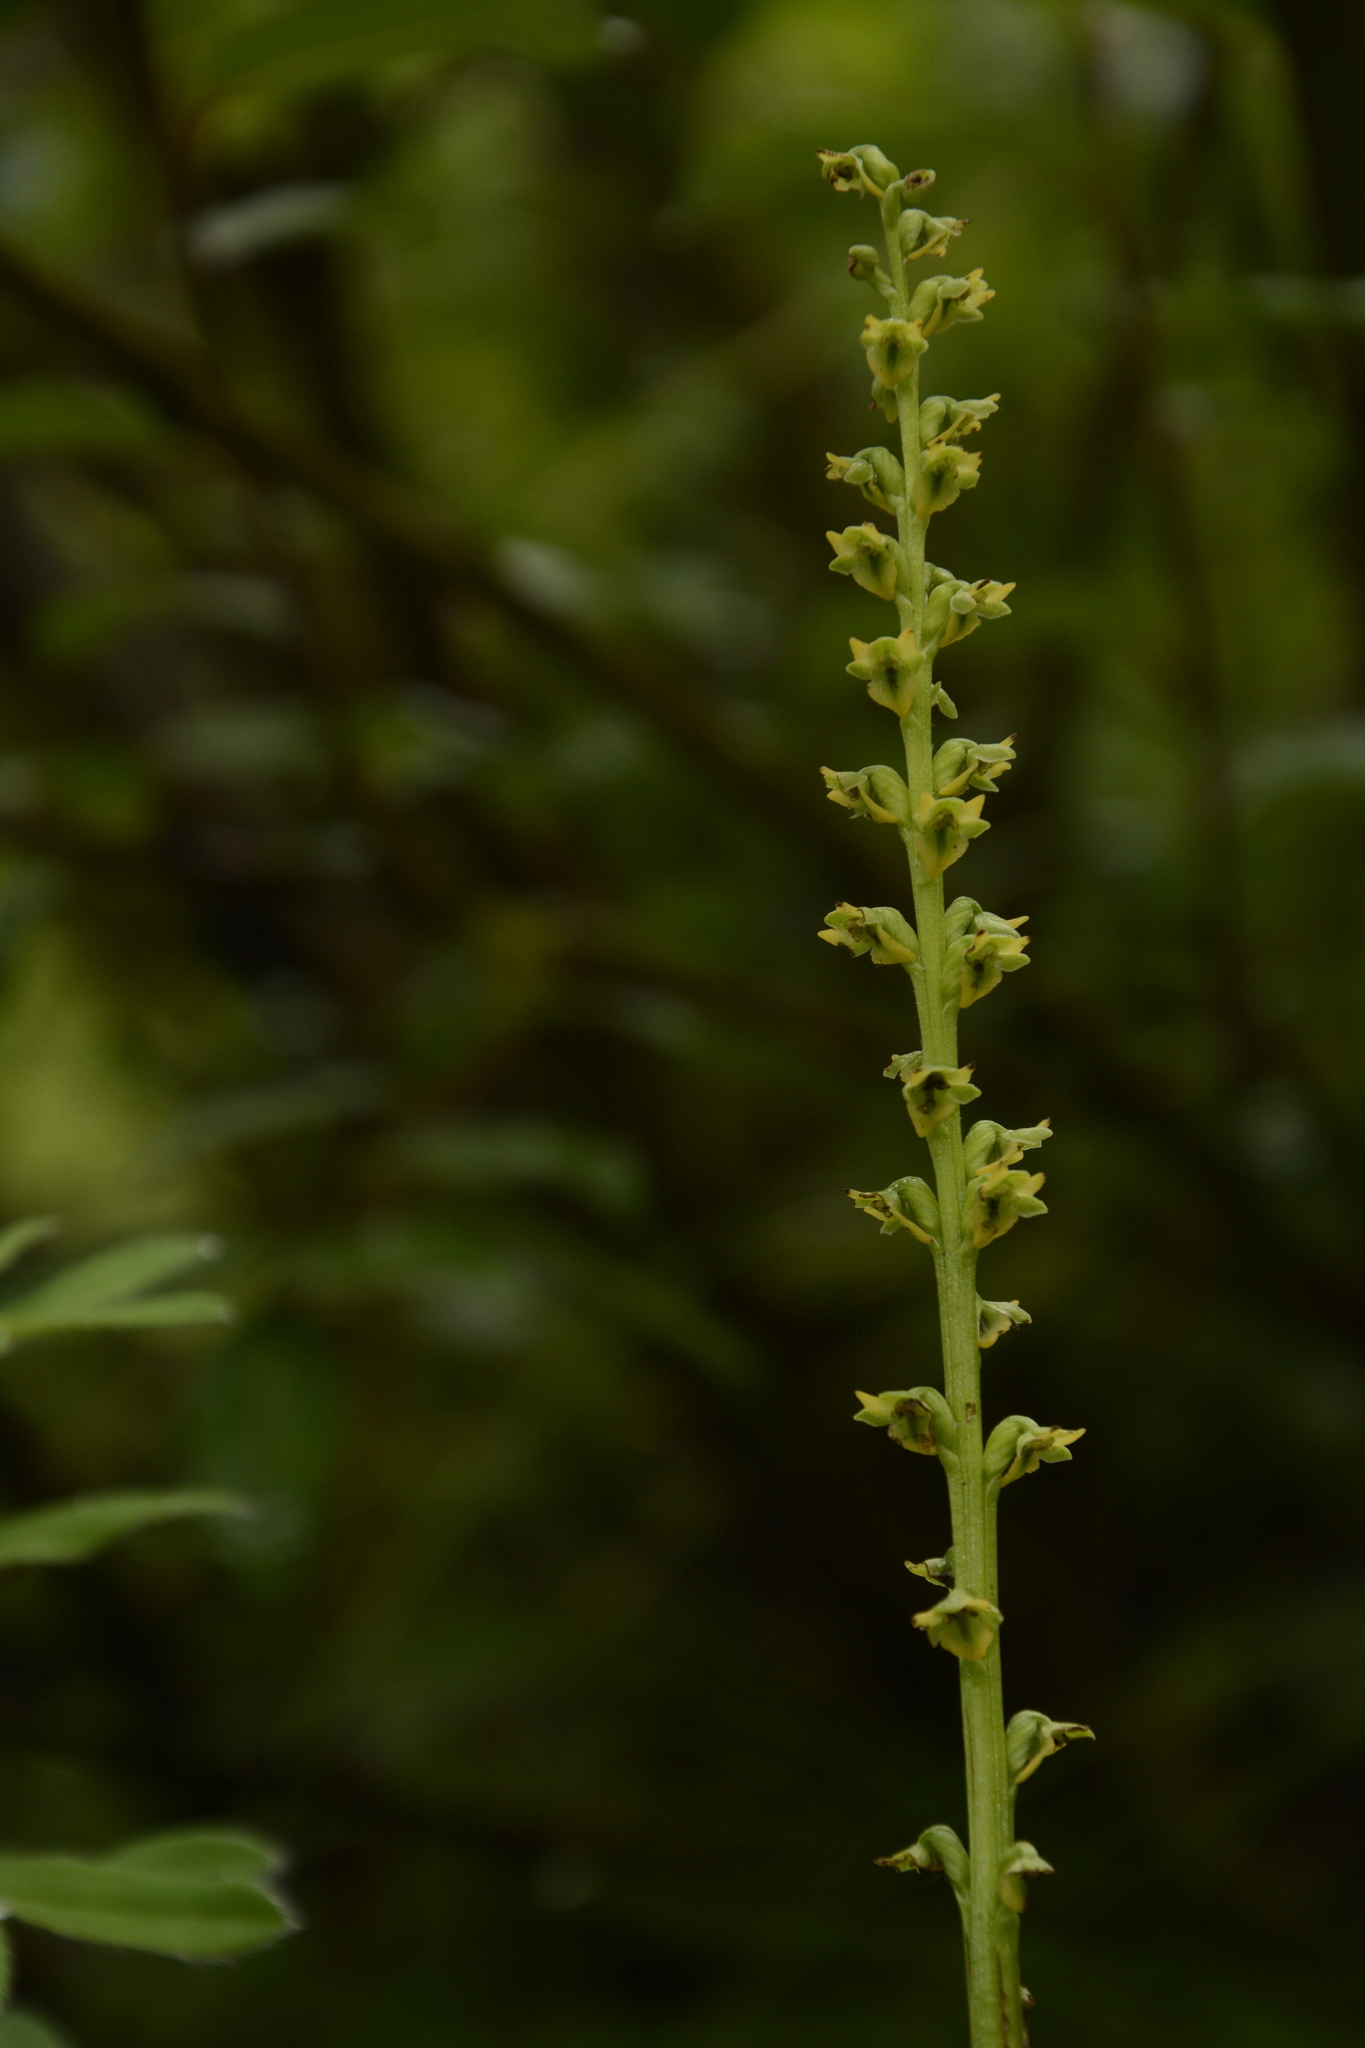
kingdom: Plantae
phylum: Tracheophyta
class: Liliopsida
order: Asparagales
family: Orchidaceae
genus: Herminium
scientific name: Herminium josephi
